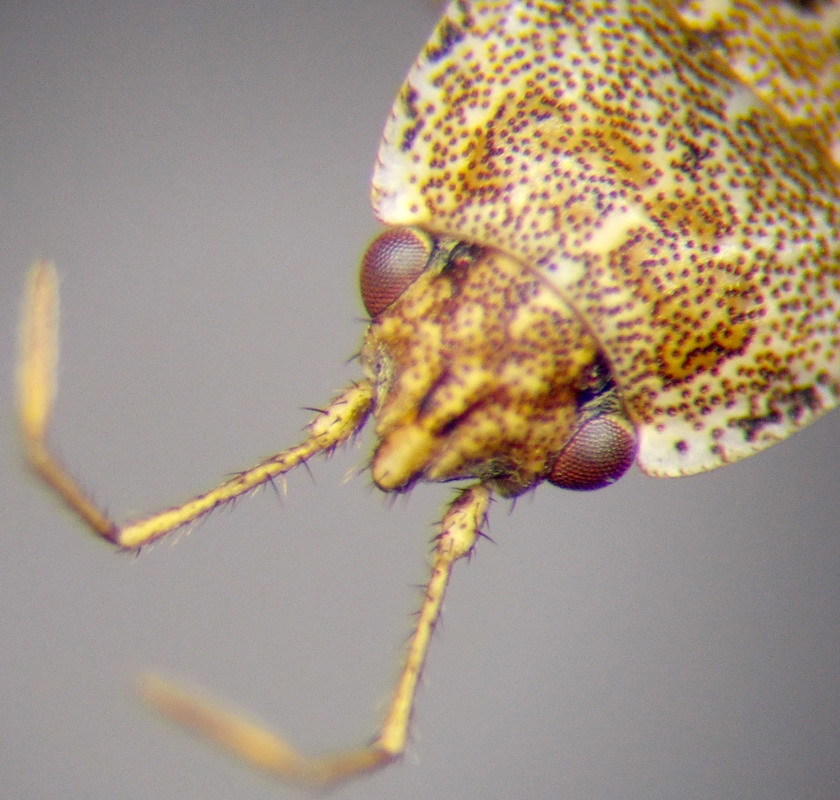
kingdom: Animalia
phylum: Arthropoda
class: Insecta
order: Hemiptera
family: Rhyparochromidae
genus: Emblethis
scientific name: Emblethis minutus
